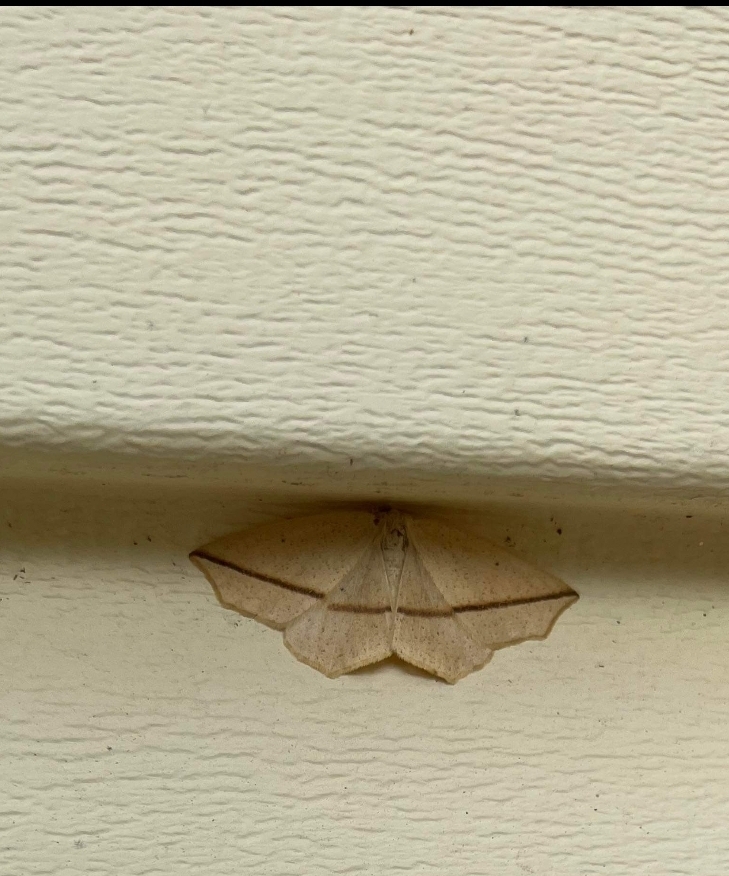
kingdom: Animalia
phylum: Arthropoda
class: Insecta
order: Lepidoptera
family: Geometridae
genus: Tetracis
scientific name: Tetracis crocallata
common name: Yellow slant-line
